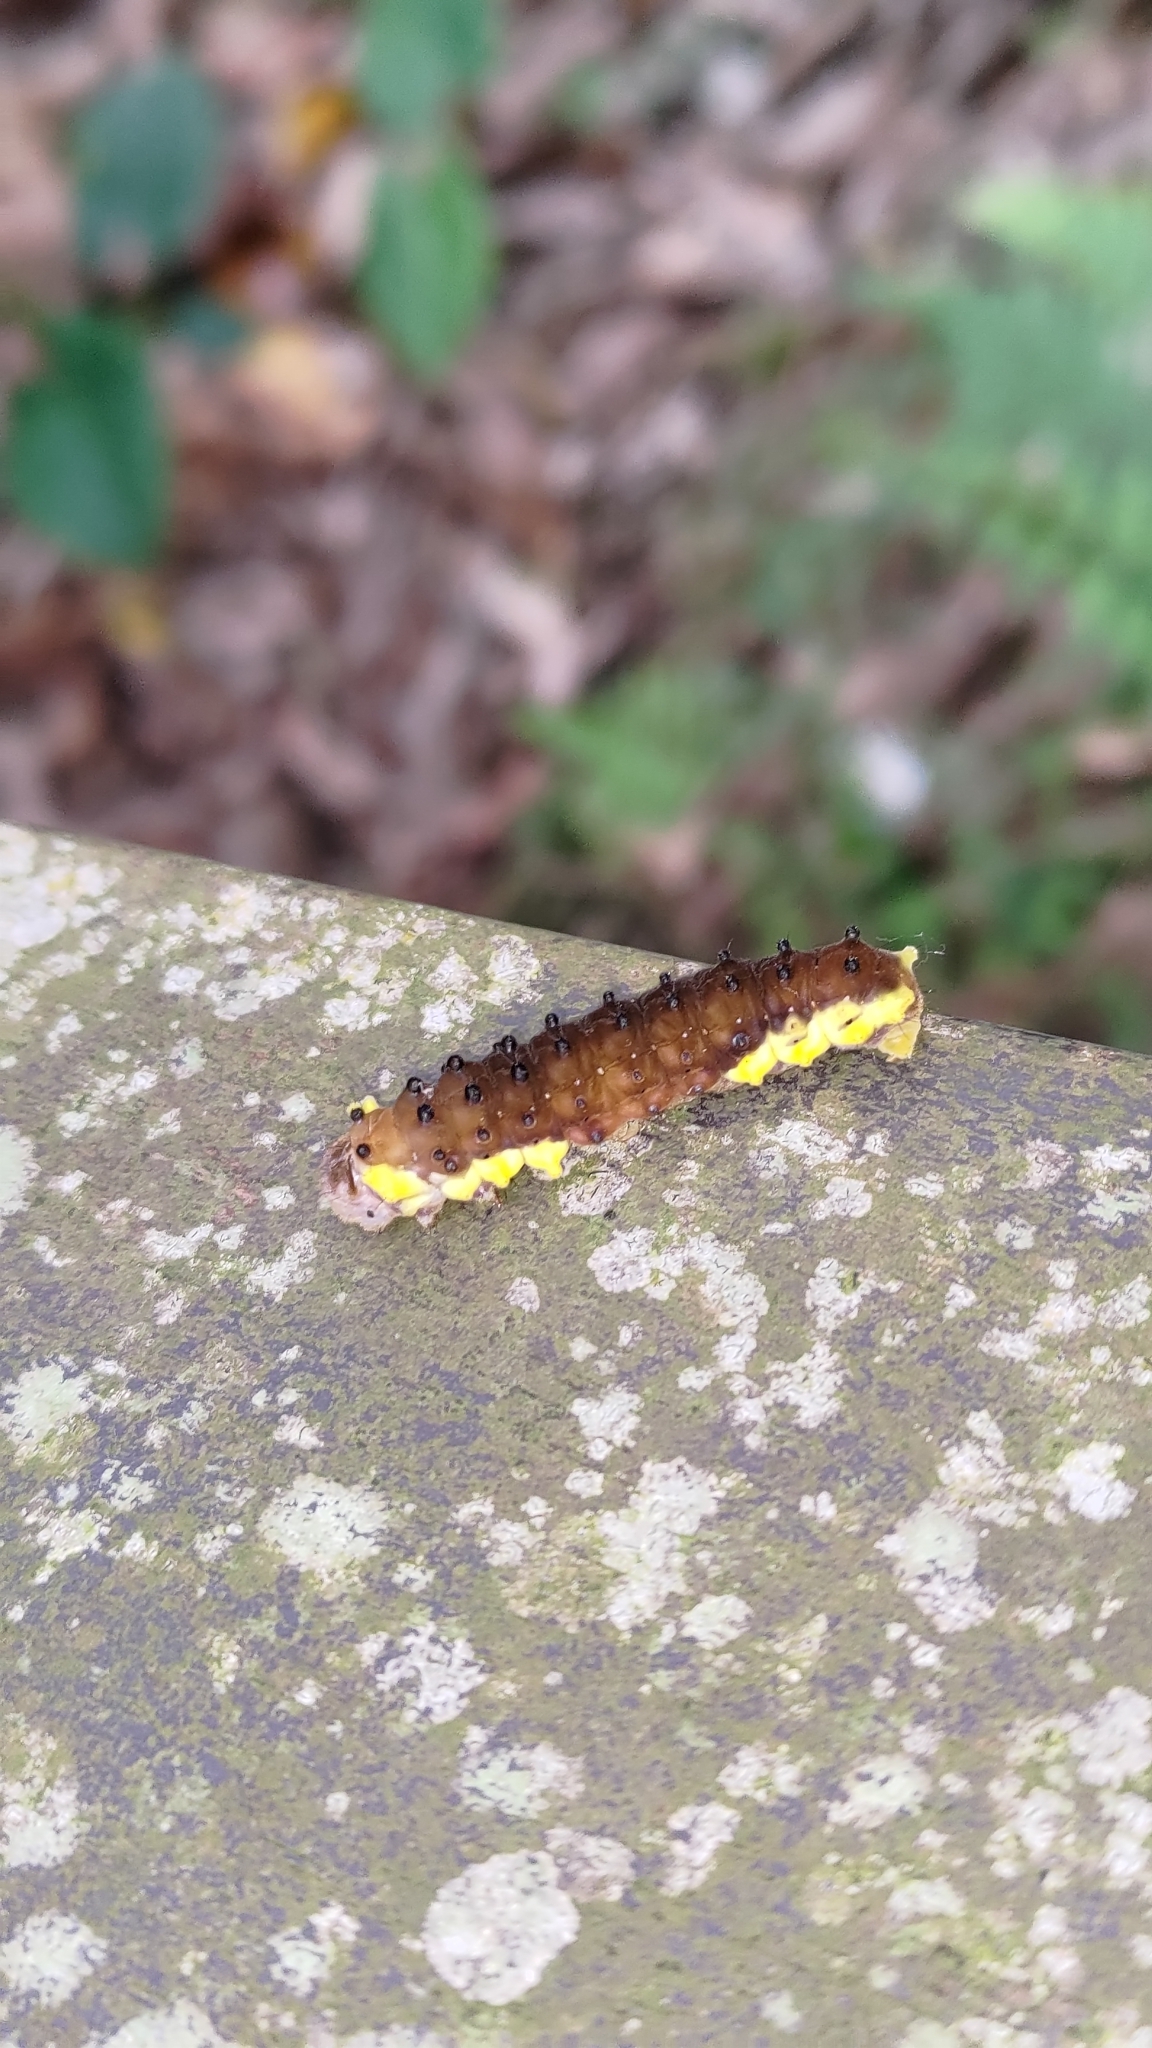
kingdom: Animalia
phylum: Arthropoda
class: Insecta
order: Lepidoptera
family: Zygaenidae
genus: Gynautocera
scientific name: Gynautocera rubriscutellata
